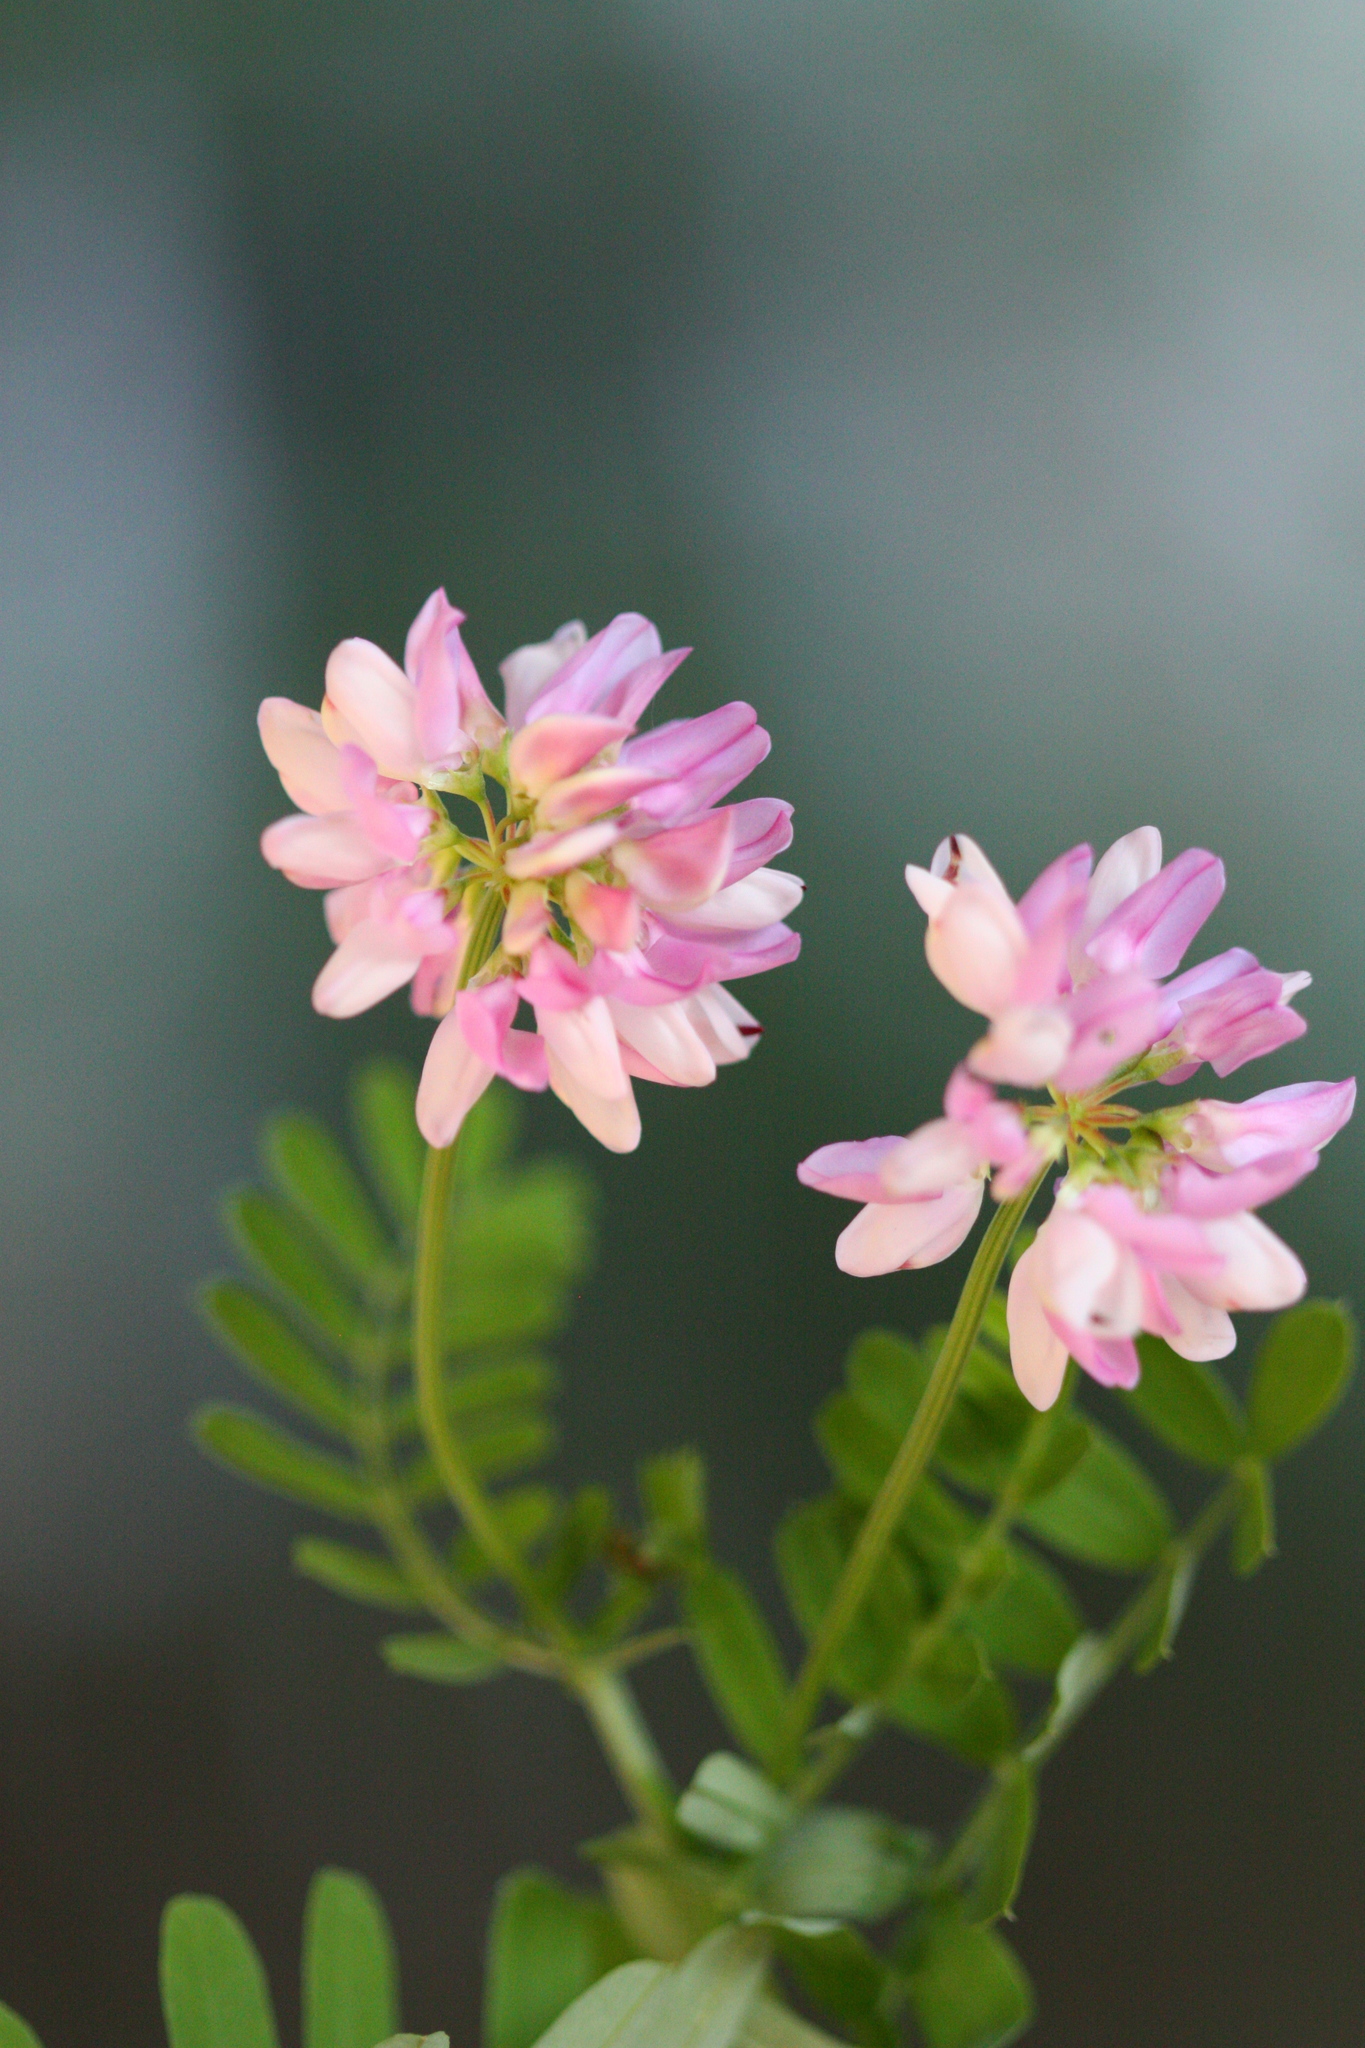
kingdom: Plantae
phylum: Tracheophyta
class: Magnoliopsida
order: Fabales
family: Fabaceae
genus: Coronilla
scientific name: Coronilla varia
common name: Crownvetch
